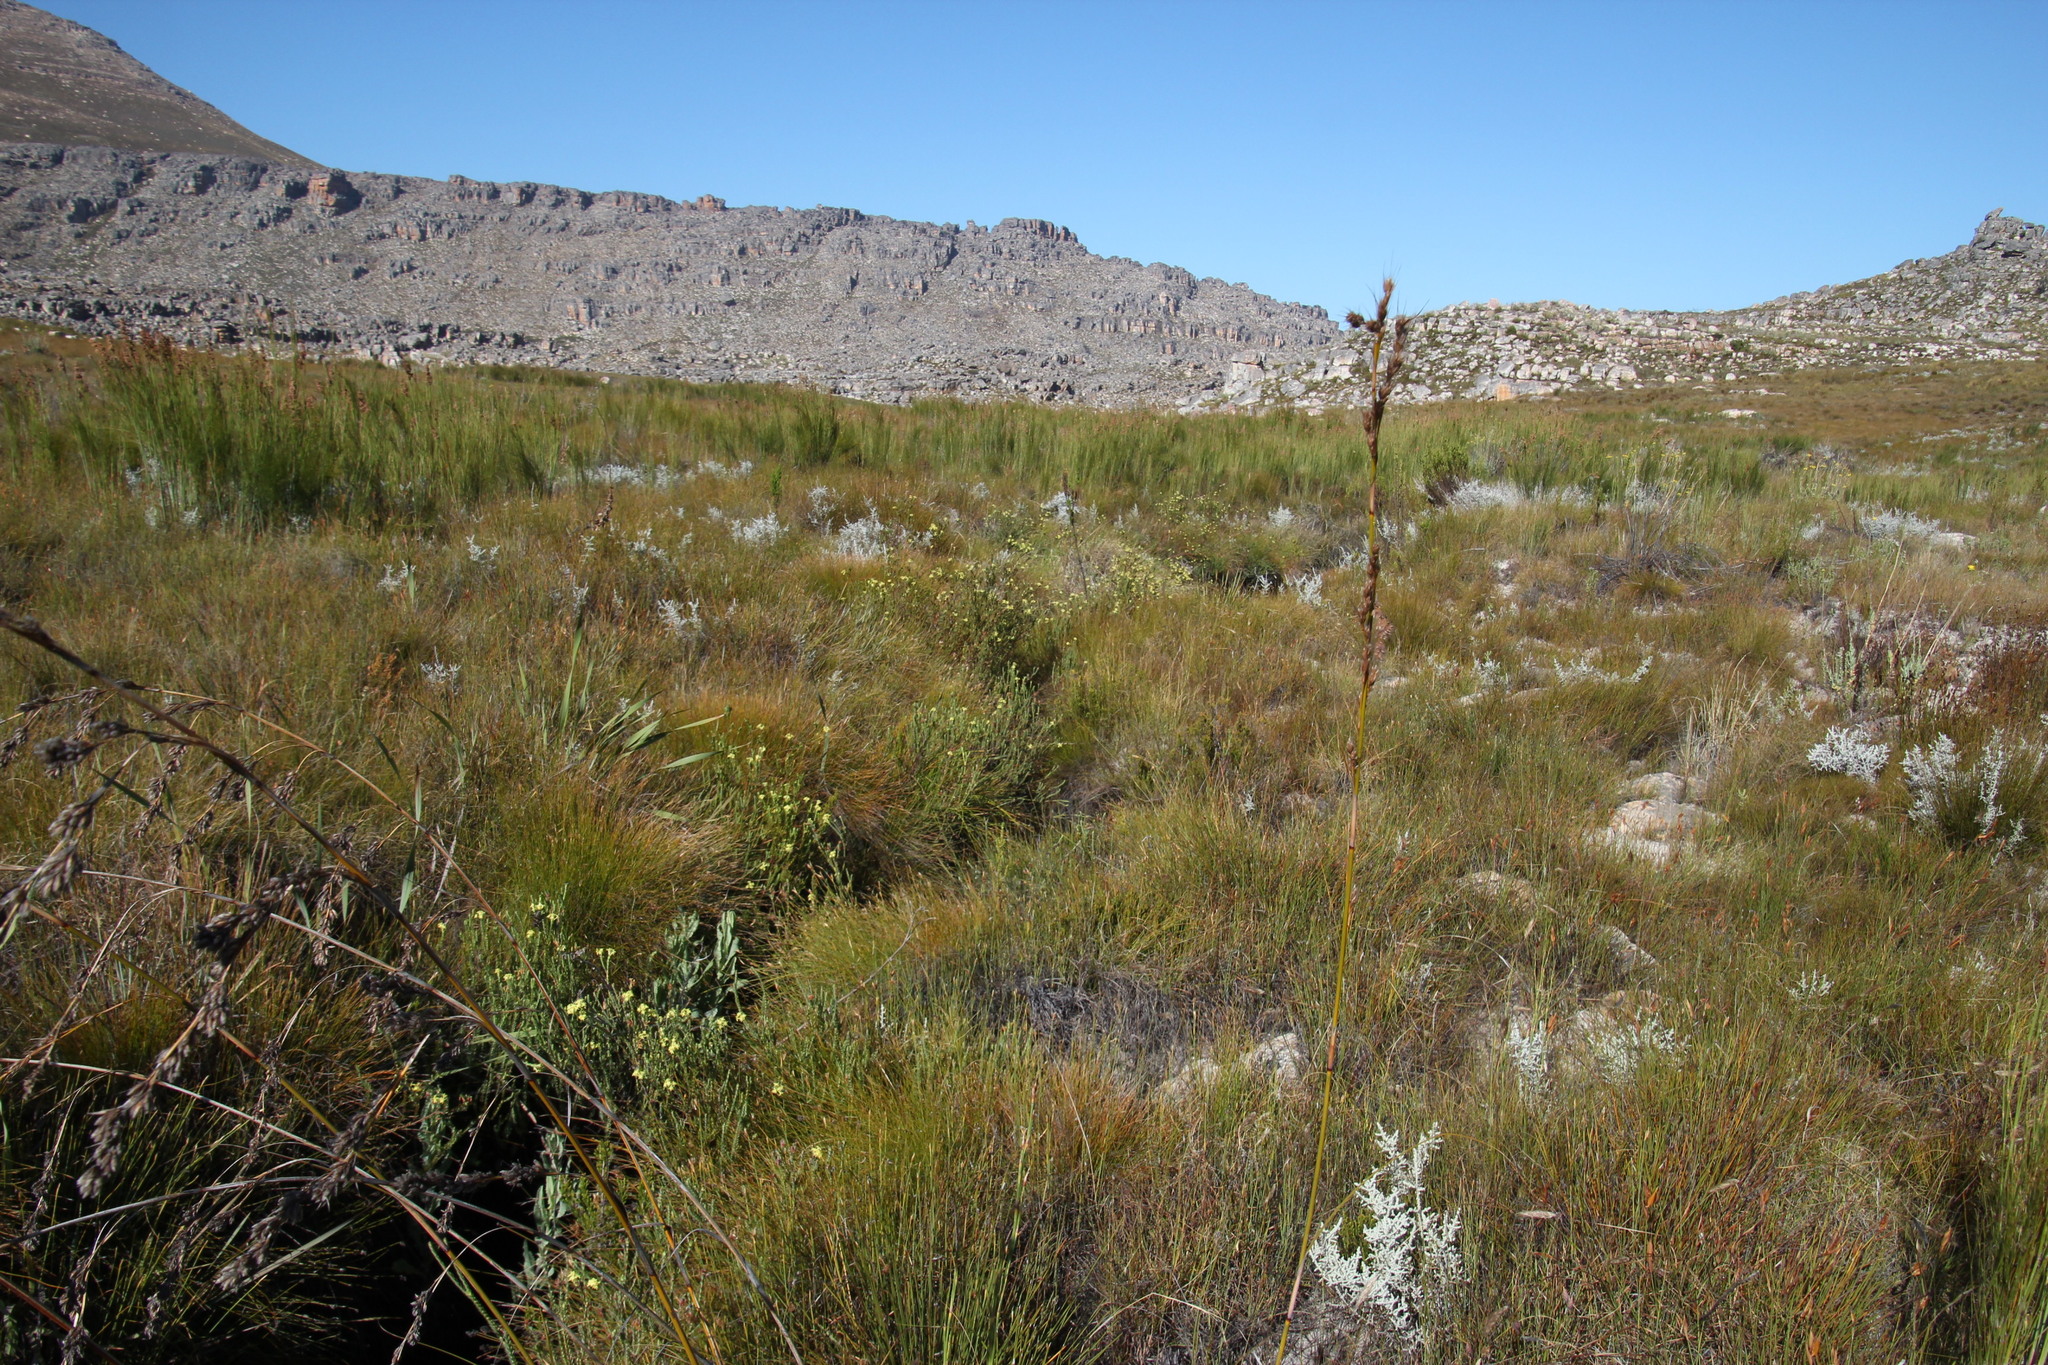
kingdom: Plantae
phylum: Tracheophyta
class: Magnoliopsida
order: Malvales
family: Thymelaeaceae
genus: Gnidia
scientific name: Gnidia oppositifolia
